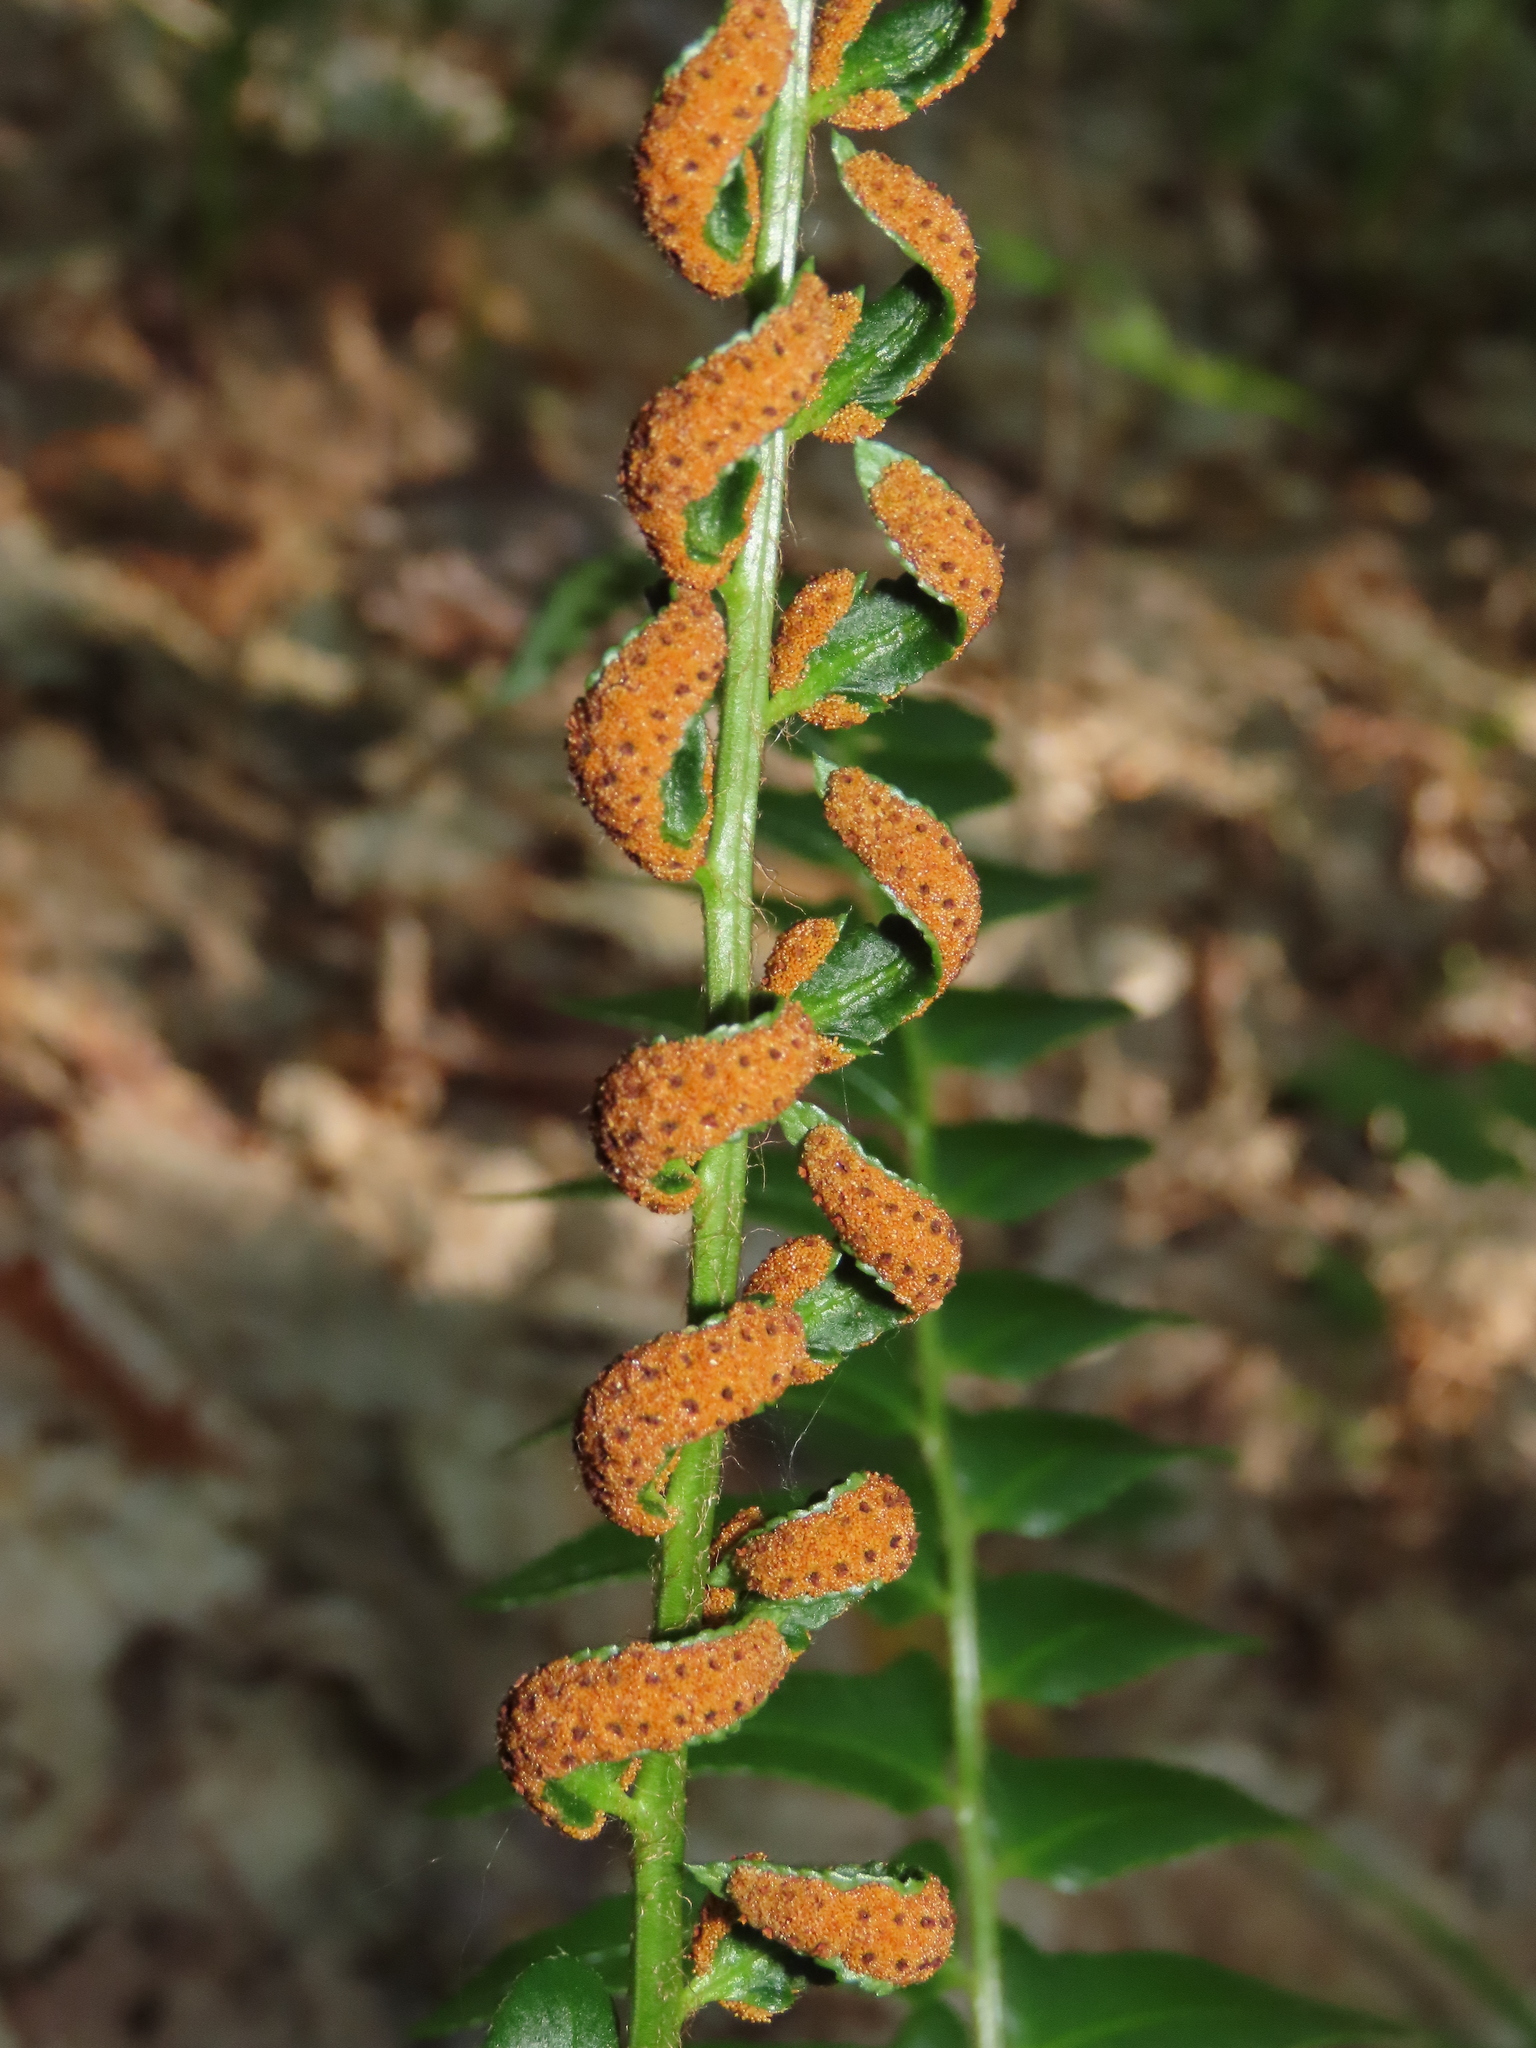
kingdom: Plantae
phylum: Tracheophyta
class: Polypodiopsida
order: Polypodiales
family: Dryopteridaceae
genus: Polystichum
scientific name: Polystichum acrostichoides
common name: Christmas fern
